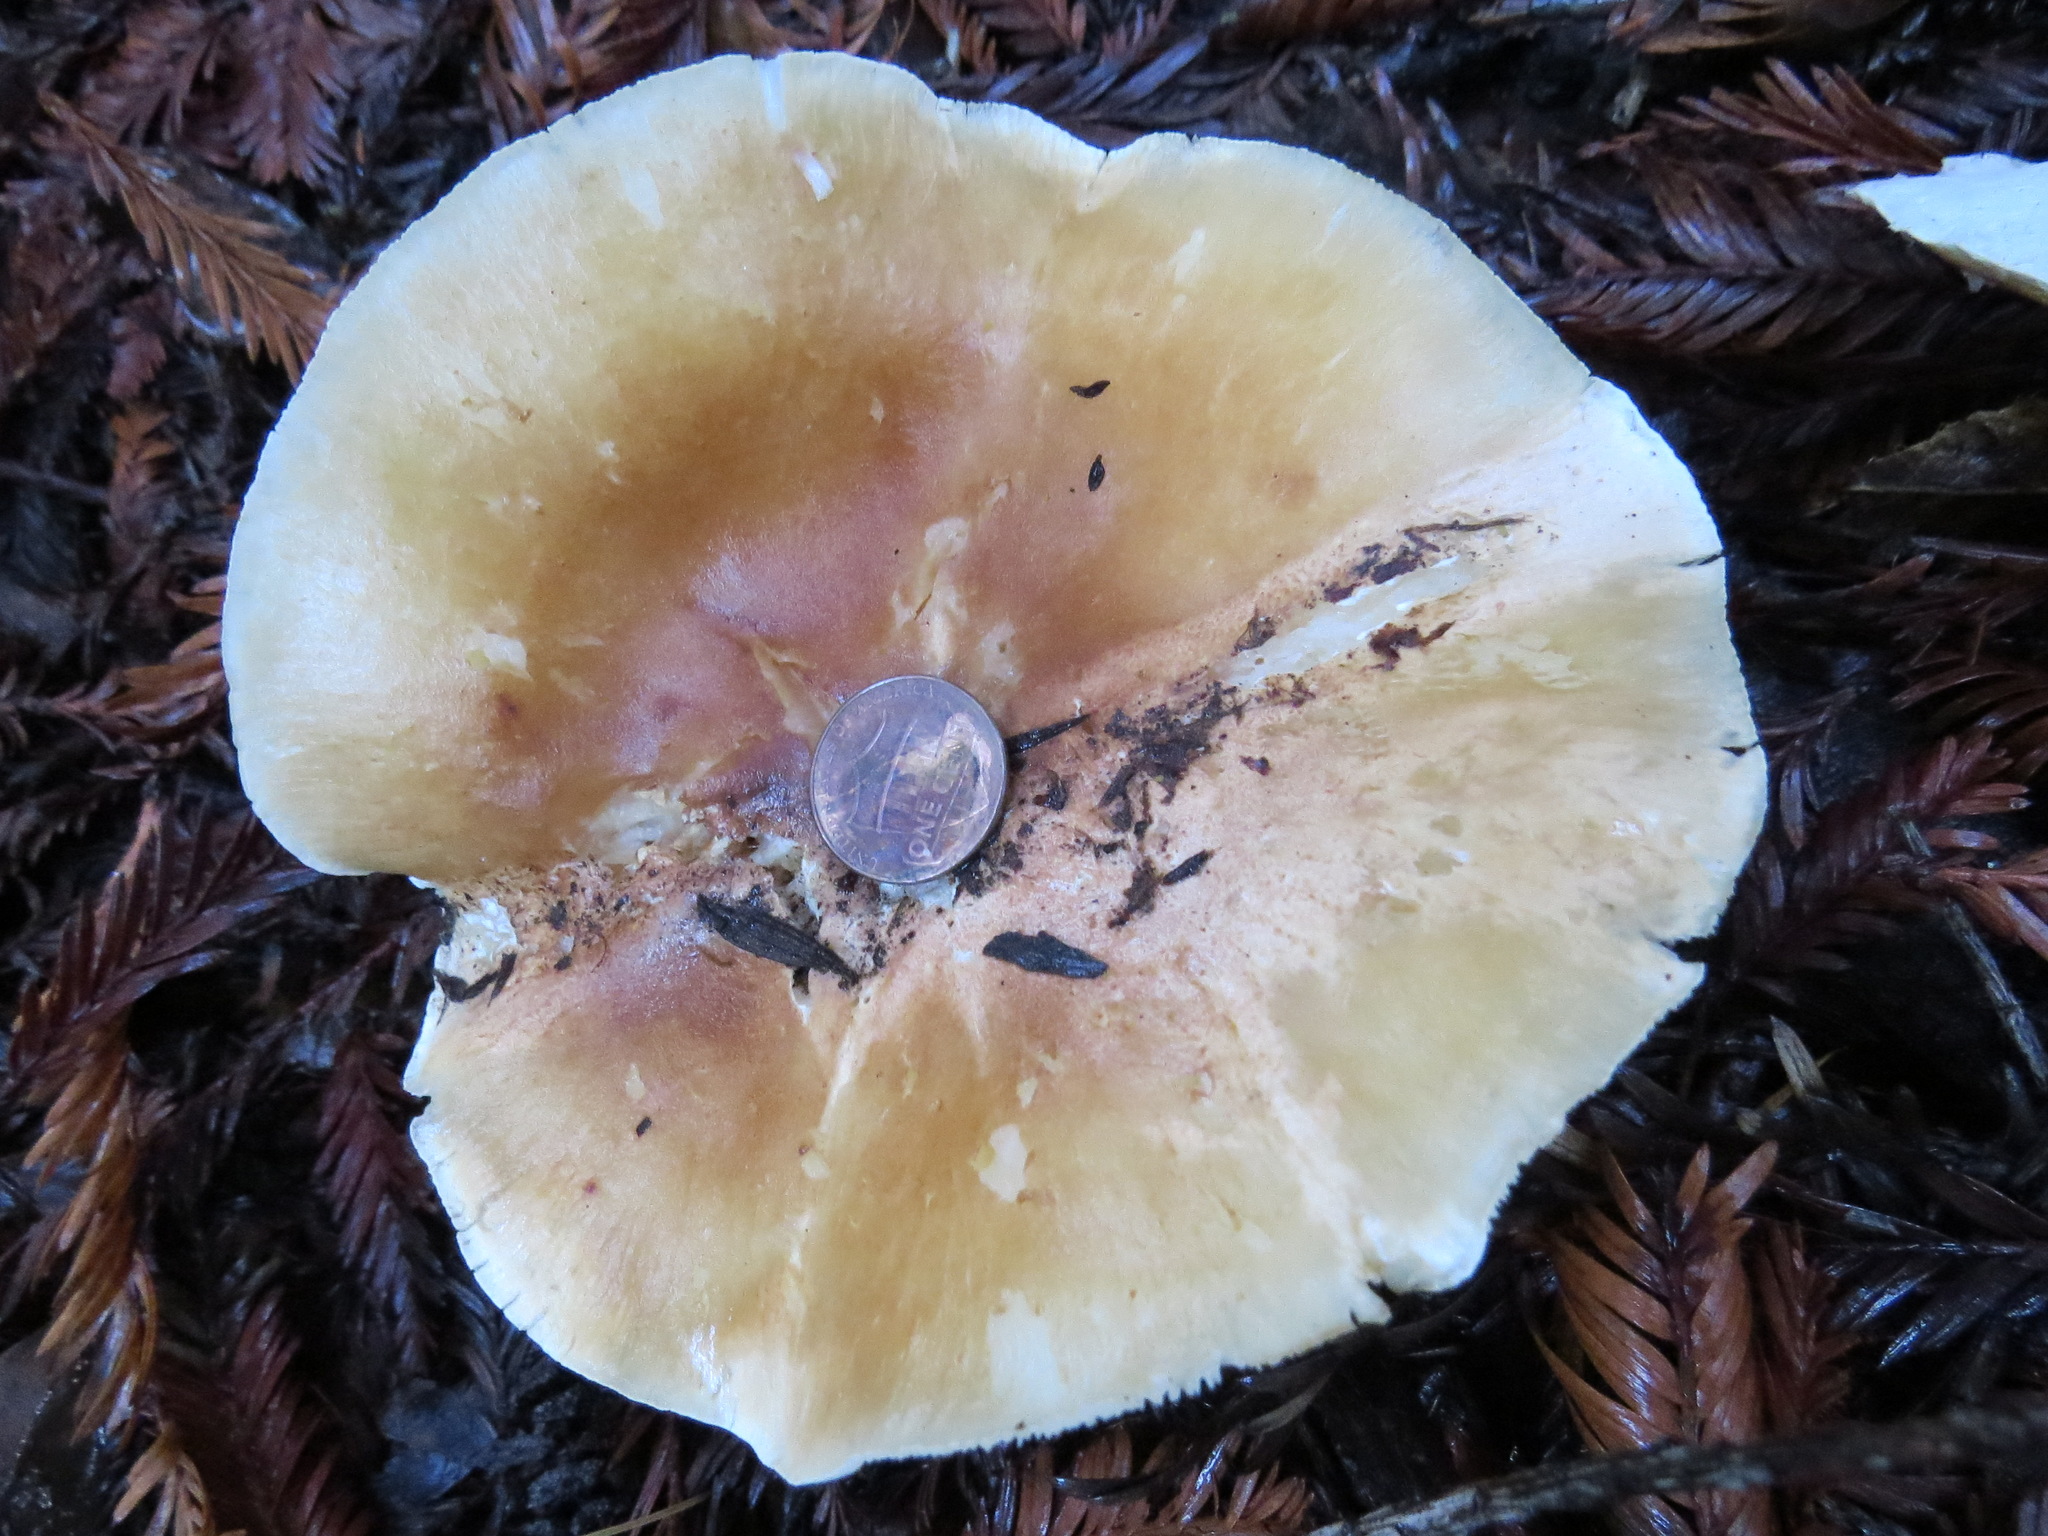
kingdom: Fungi
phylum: Basidiomycota
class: Agaricomycetes
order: Agaricales
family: Tricholomataceae
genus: Leucopaxillus
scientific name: Leucopaxillus gentianeus
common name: Bitter funnel
